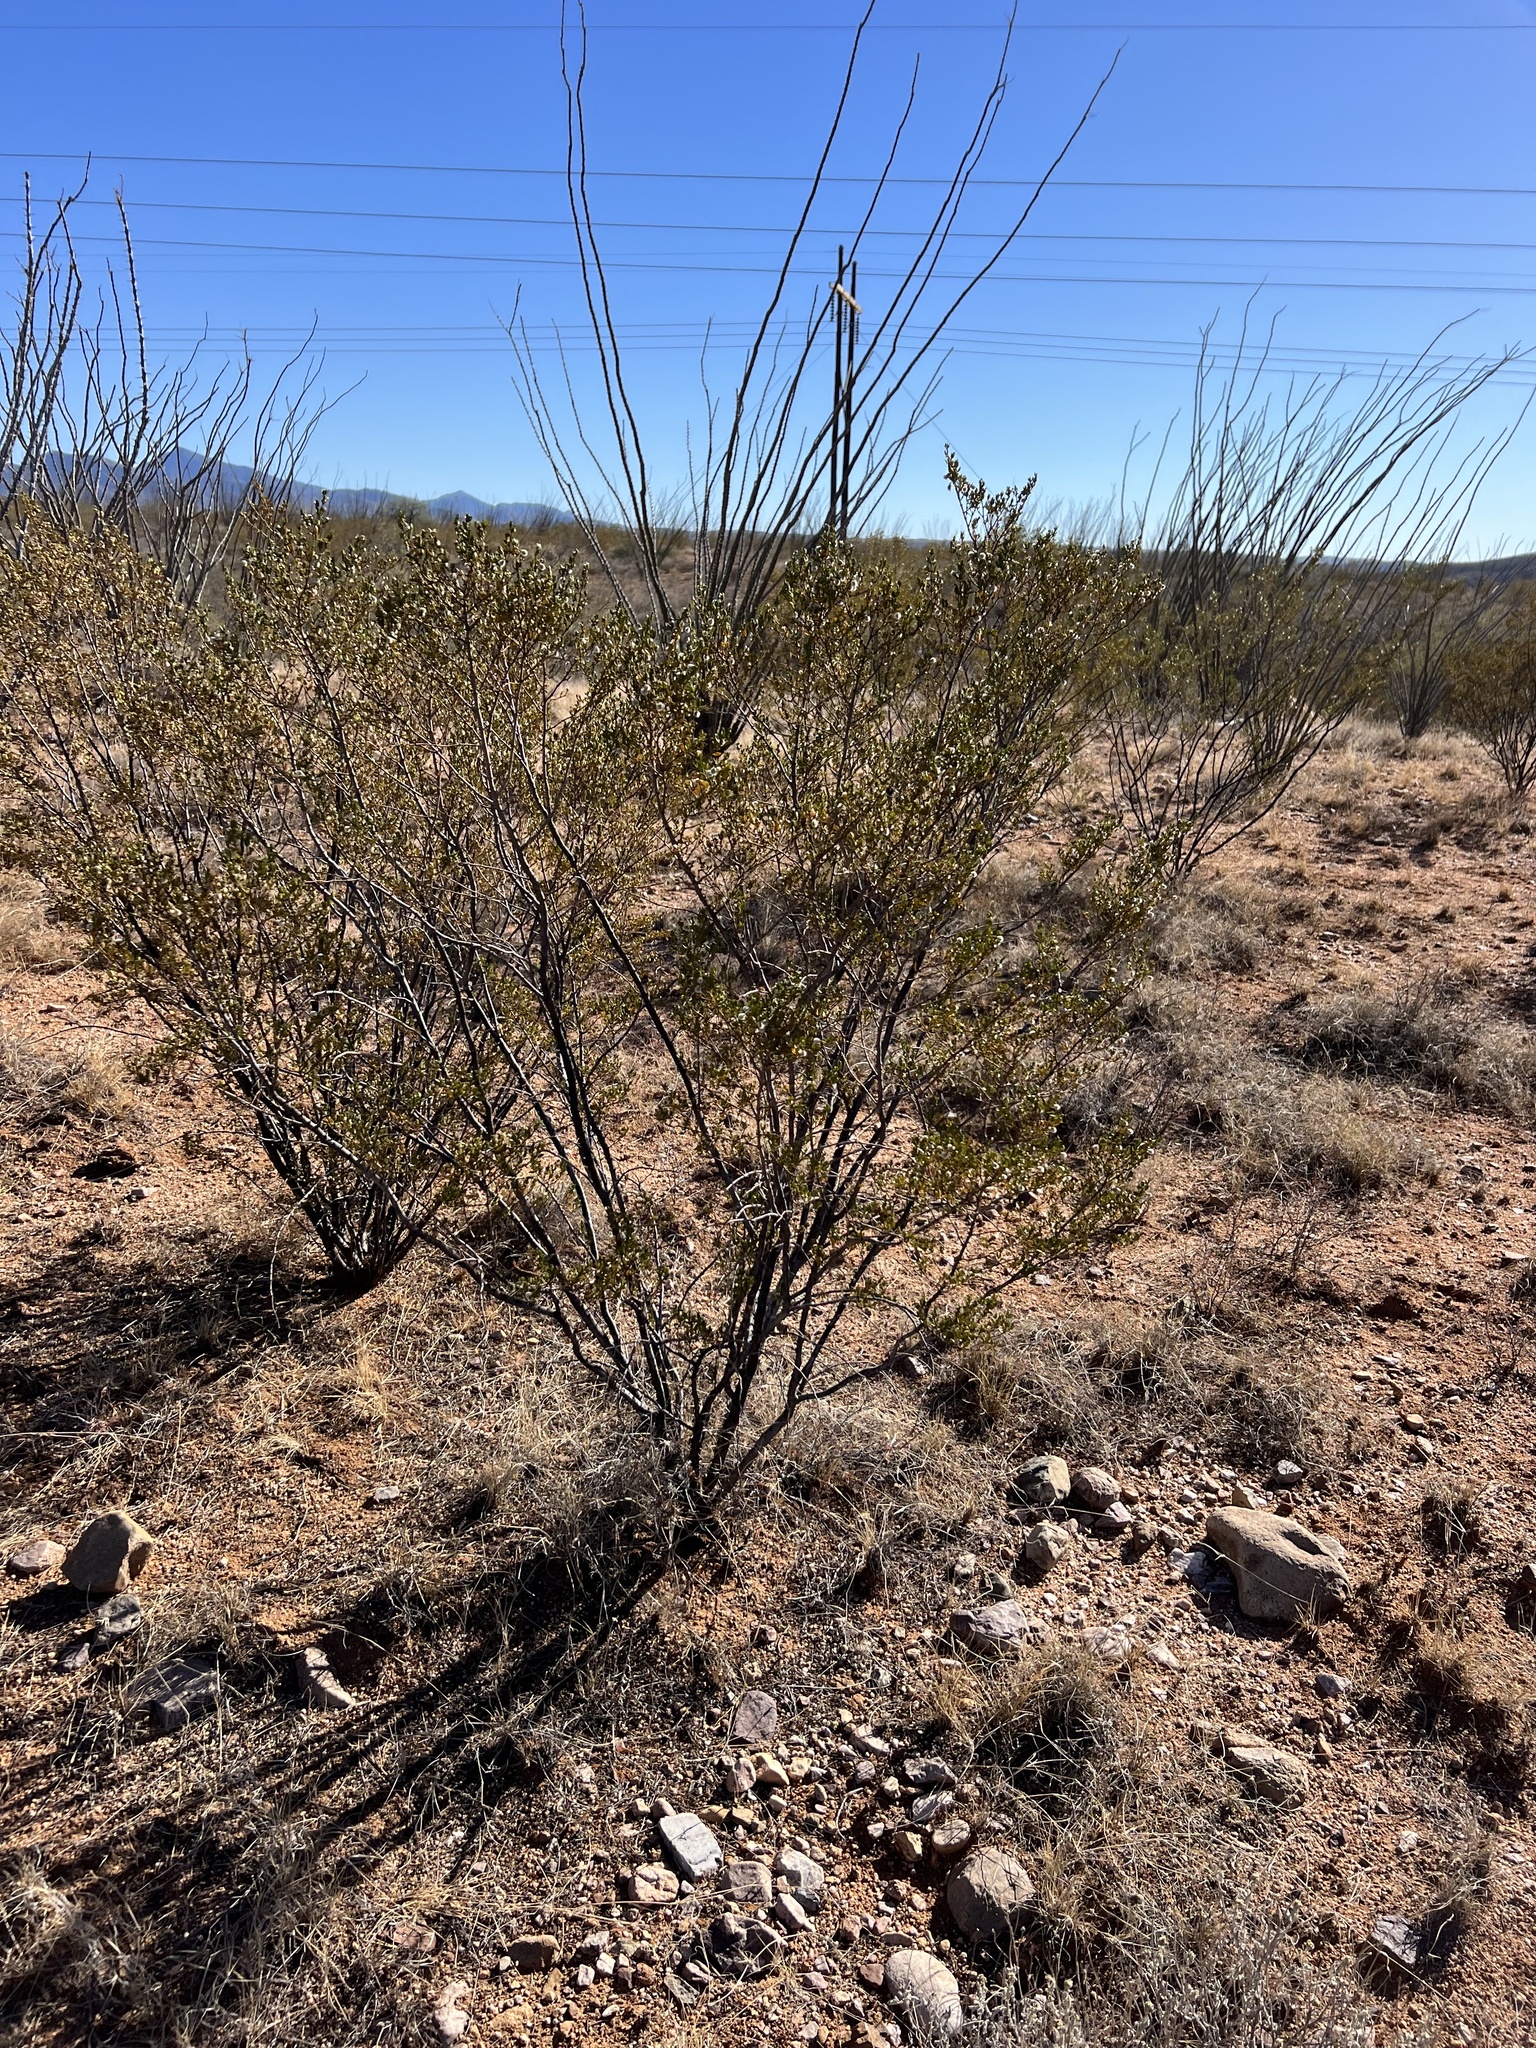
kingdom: Plantae
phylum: Tracheophyta
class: Magnoliopsida
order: Zygophyllales
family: Zygophyllaceae
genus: Larrea
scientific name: Larrea tridentata
